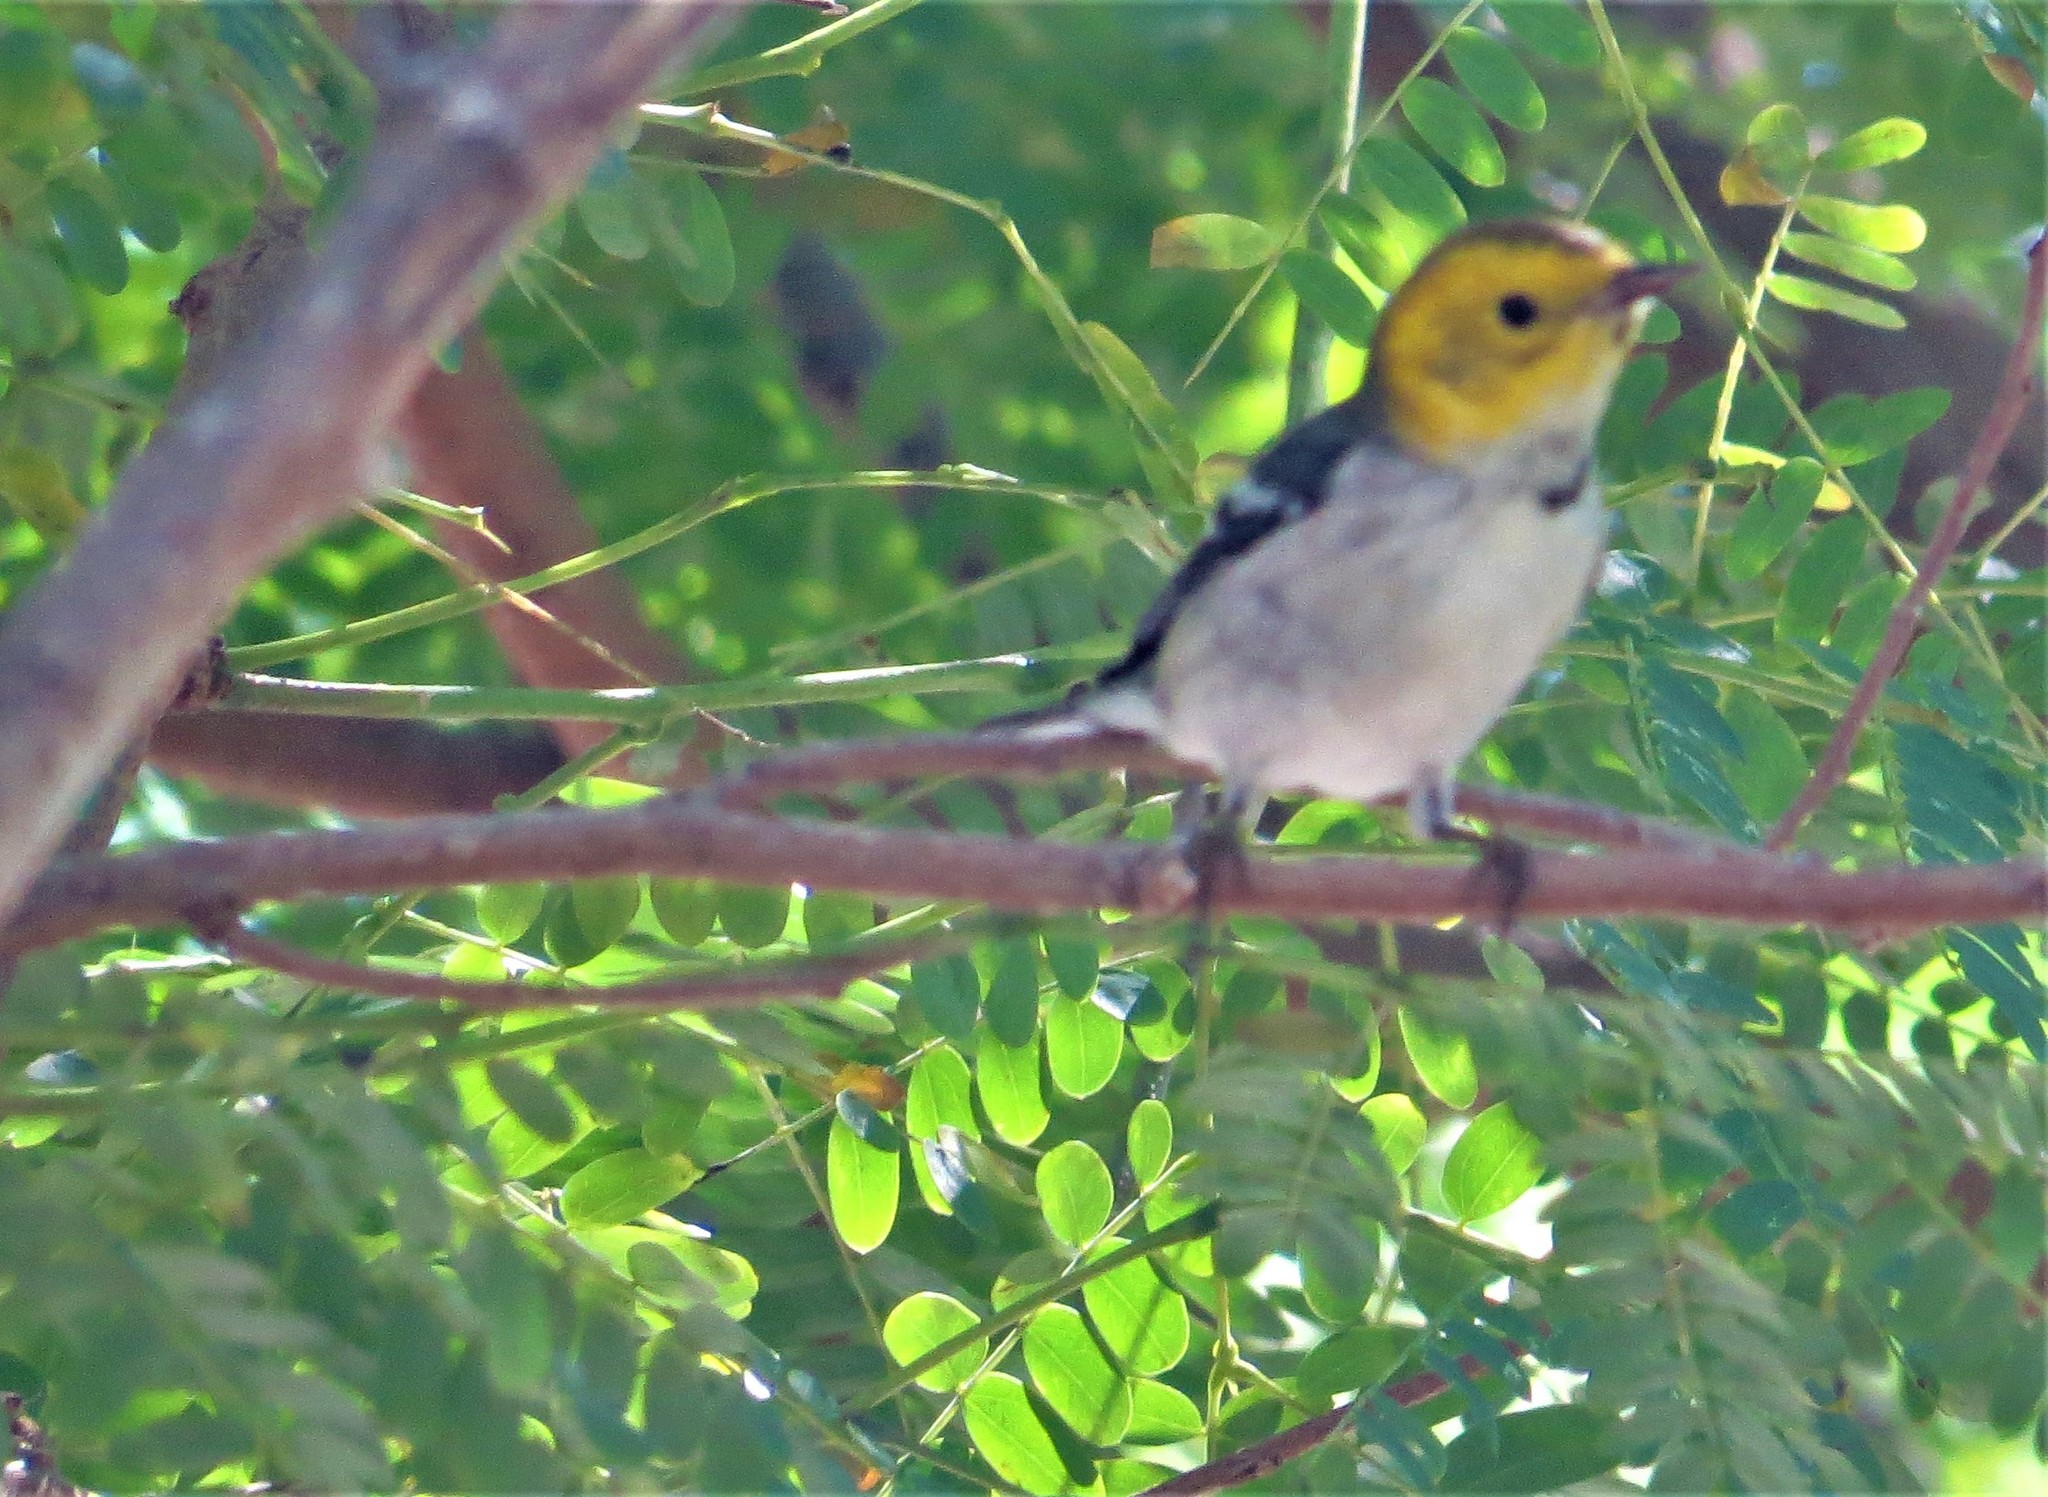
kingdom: Animalia
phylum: Chordata
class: Aves
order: Passeriformes
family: Parulidae
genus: Setophaga
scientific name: Setophaga occidentalis
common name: Hermit warbler
